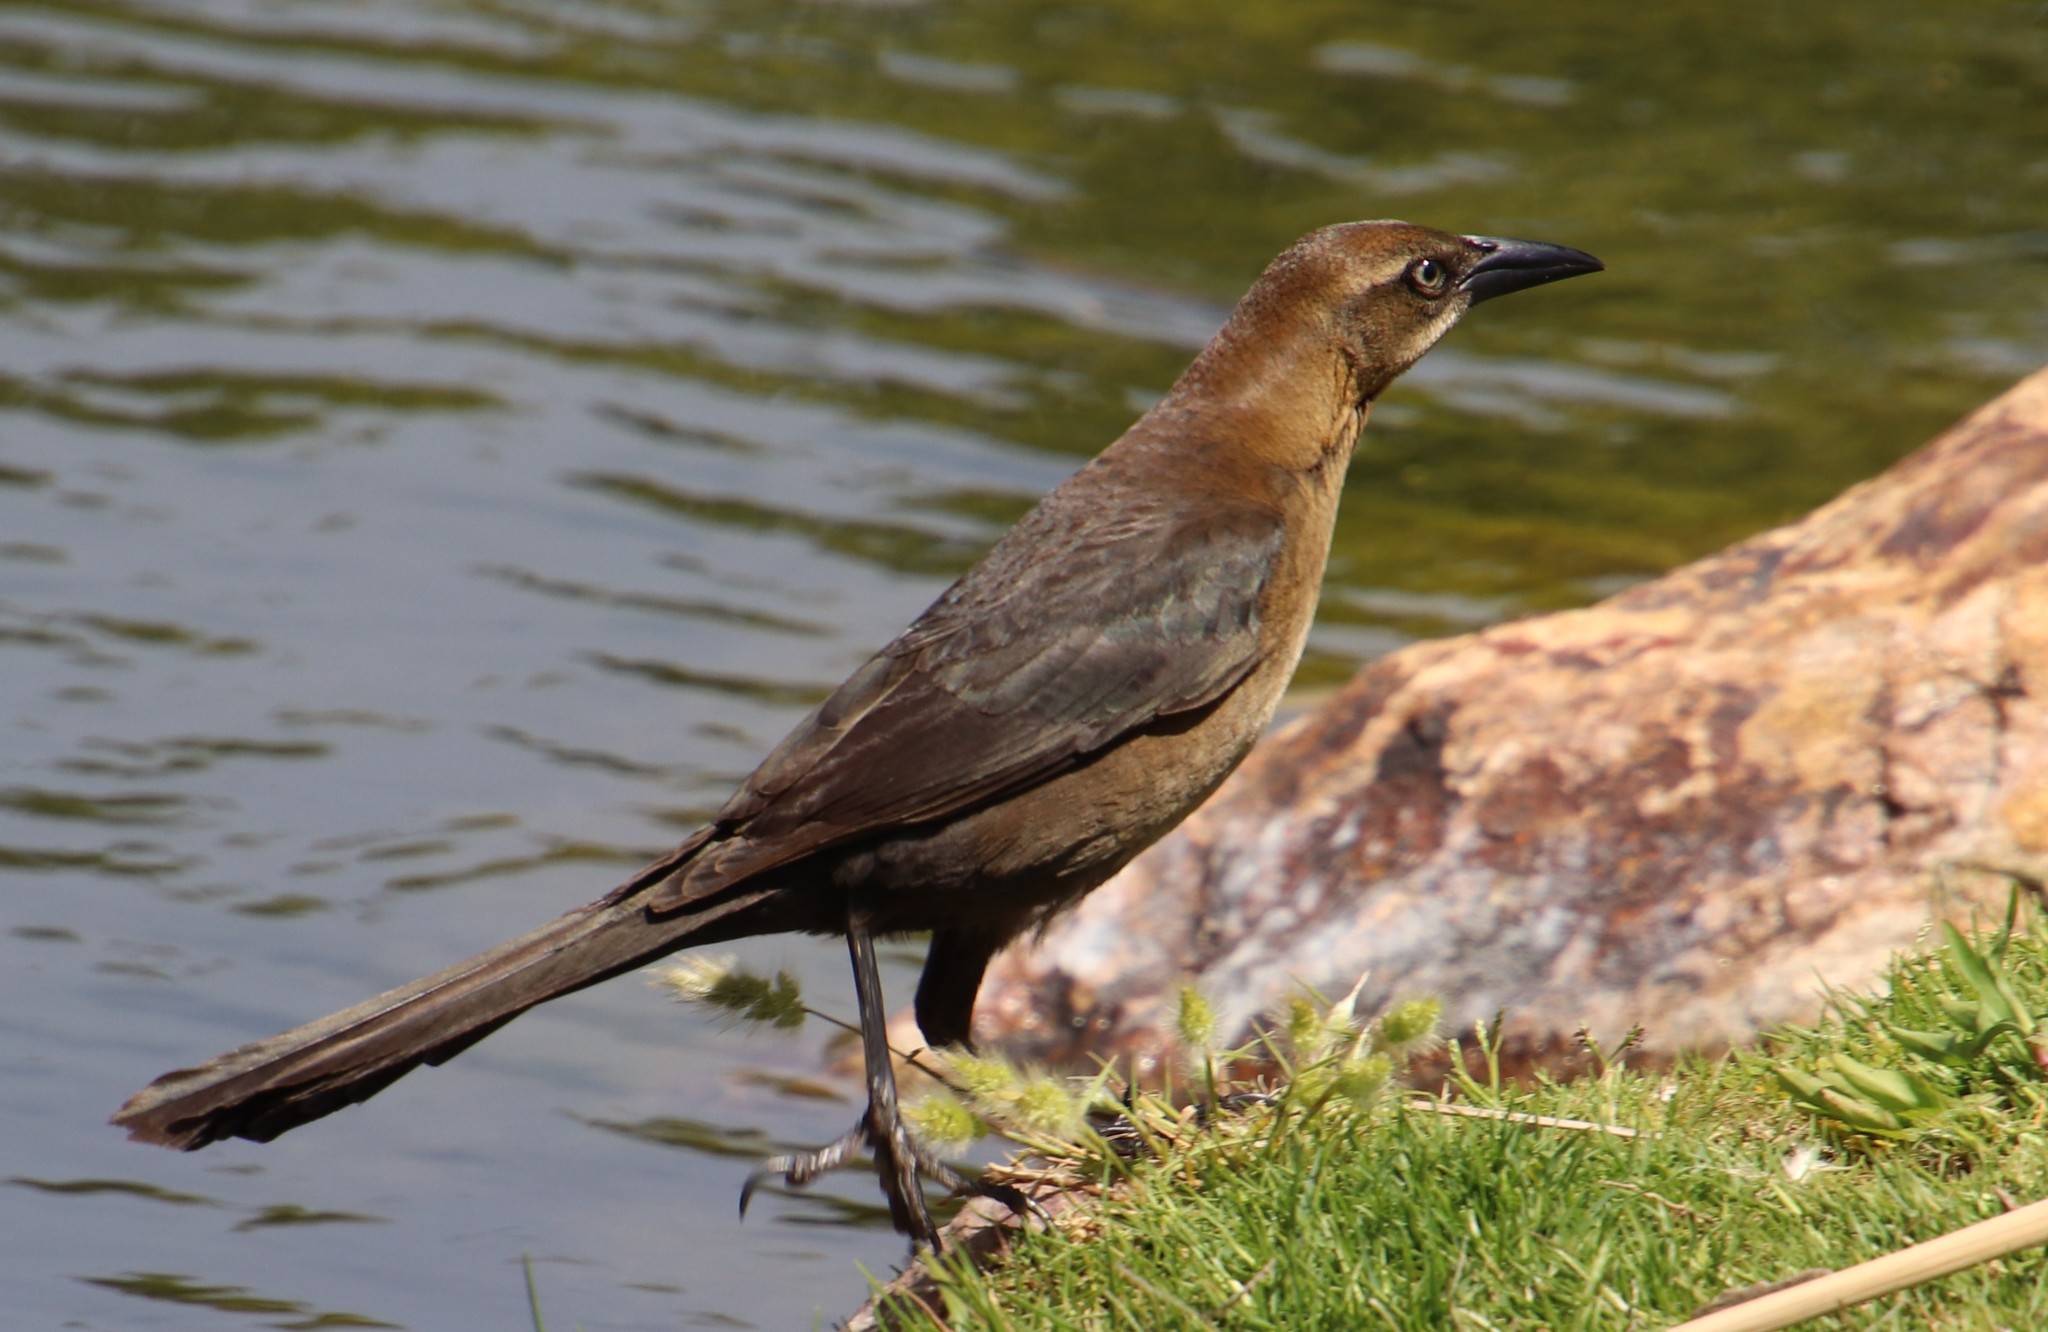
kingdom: Animalia
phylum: Chordata
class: Aves
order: Passeriformes
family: Icteridae
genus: Quiscalus
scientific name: Quiscalus mexicanus
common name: Great-tailed grackle
